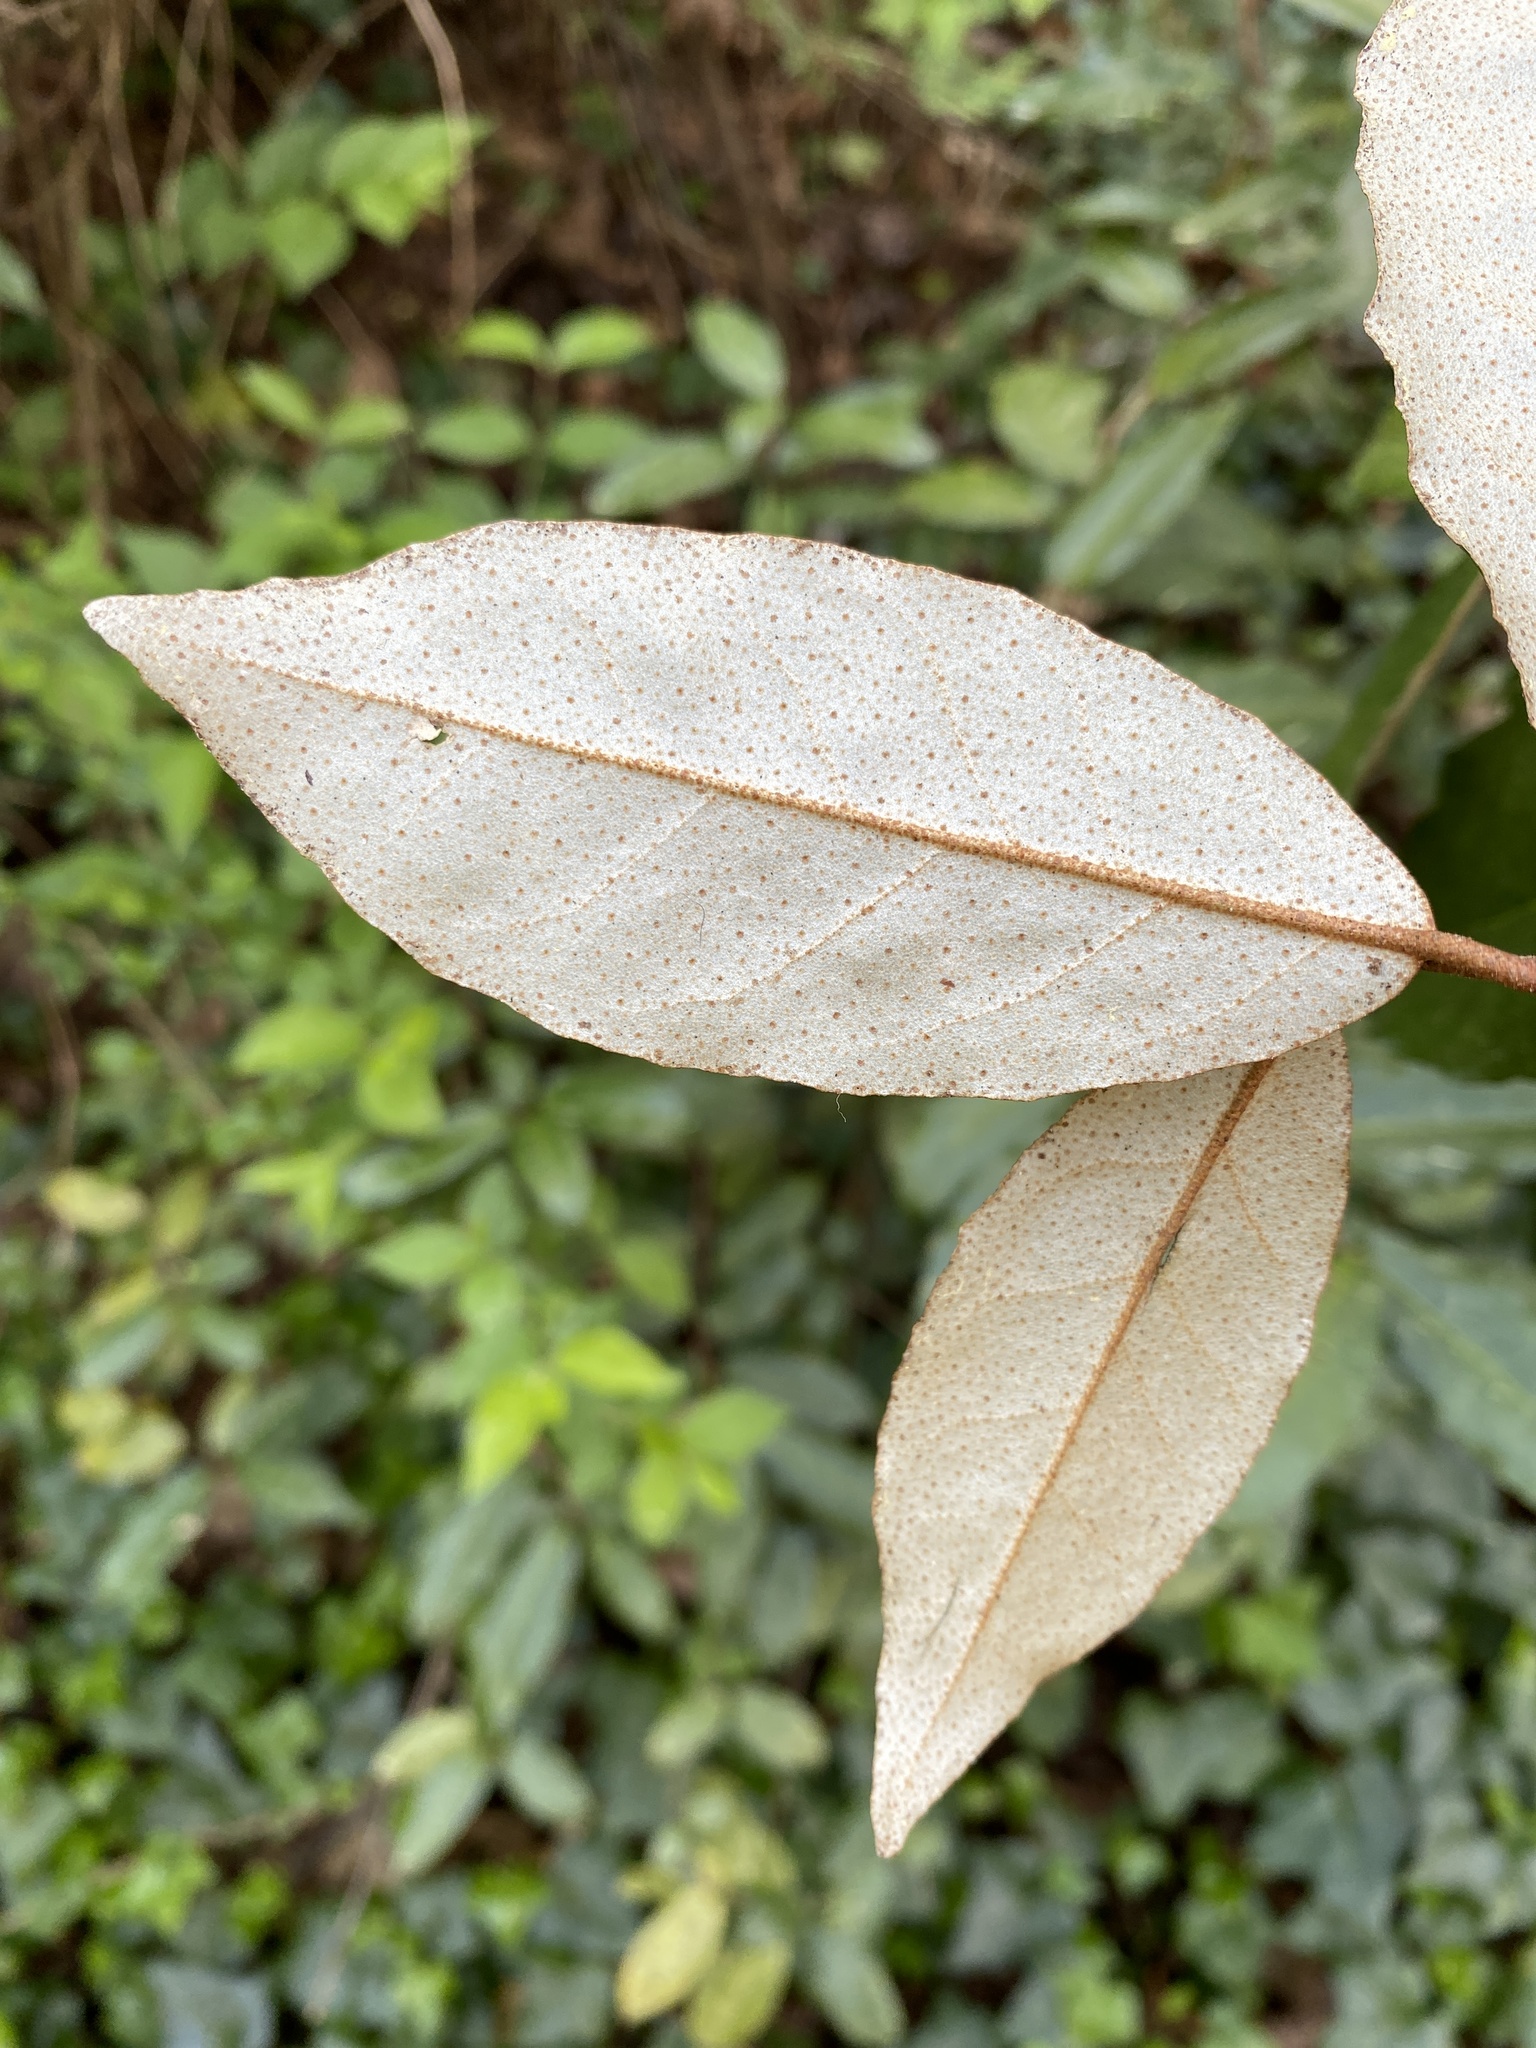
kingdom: Plantae
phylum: Tracheophyta
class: Magnoliopsida
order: Rosales
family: Elaeagnaceae
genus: Elaeagnus
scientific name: Elaeagnus pungens
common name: Spiny oleaster
